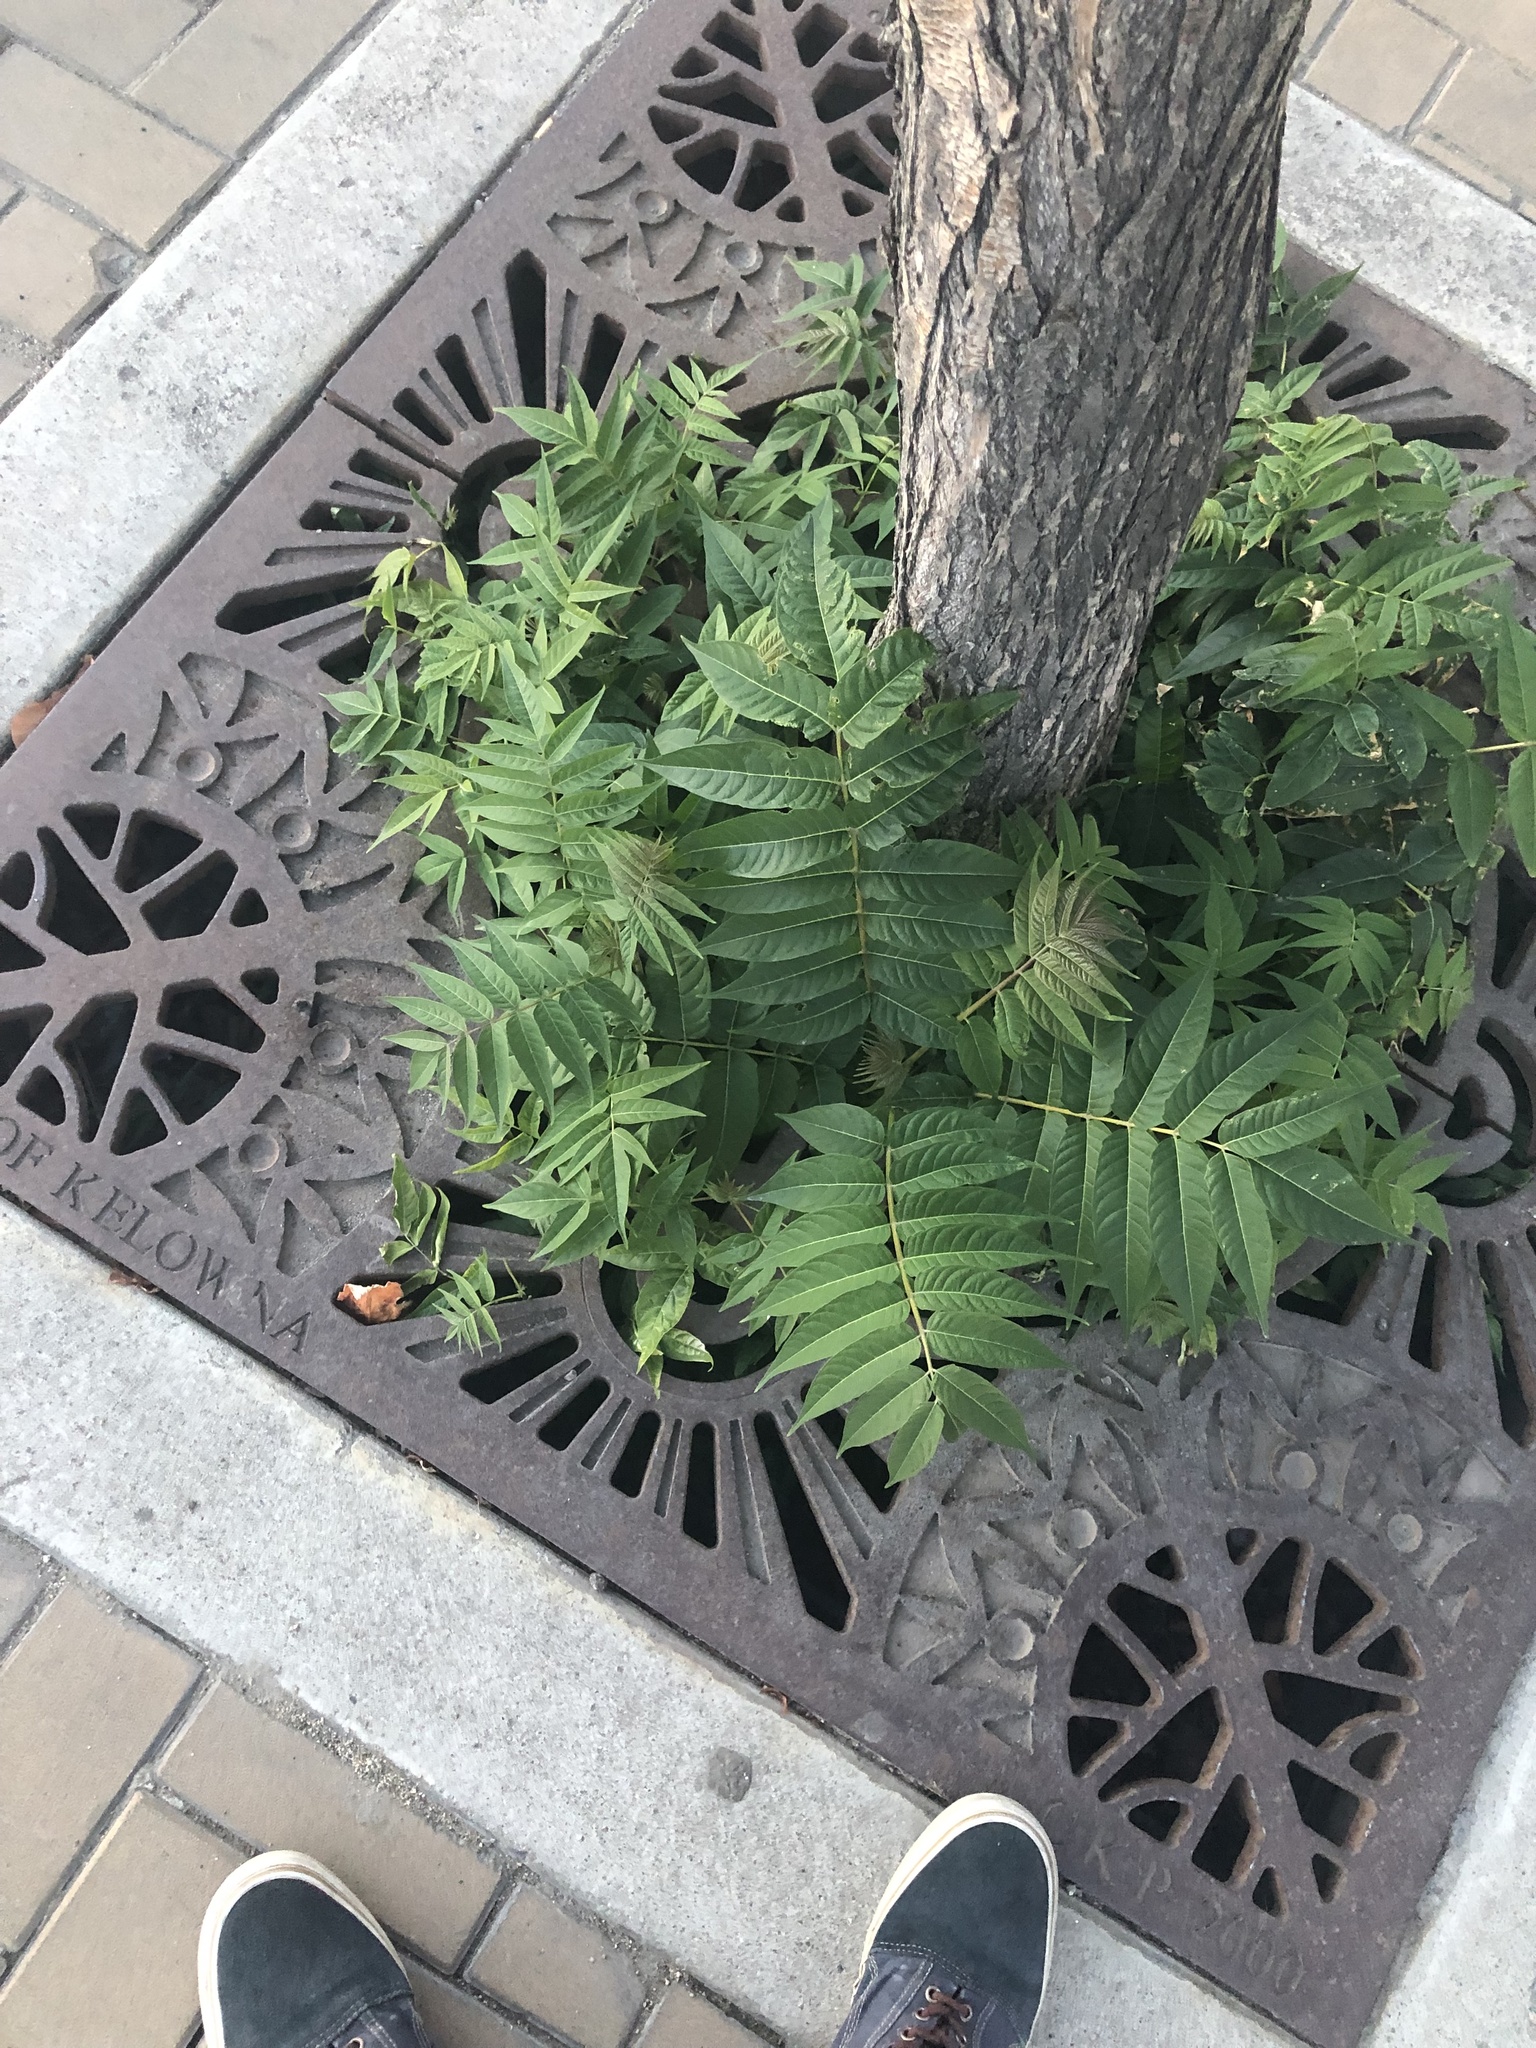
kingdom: Plantae
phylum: Tracheophyta
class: Magnoliopsida
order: Sapindales
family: Simaroubaceae
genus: Ailanthus
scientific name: Ailanthus altissima
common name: Tree-of-heaven
